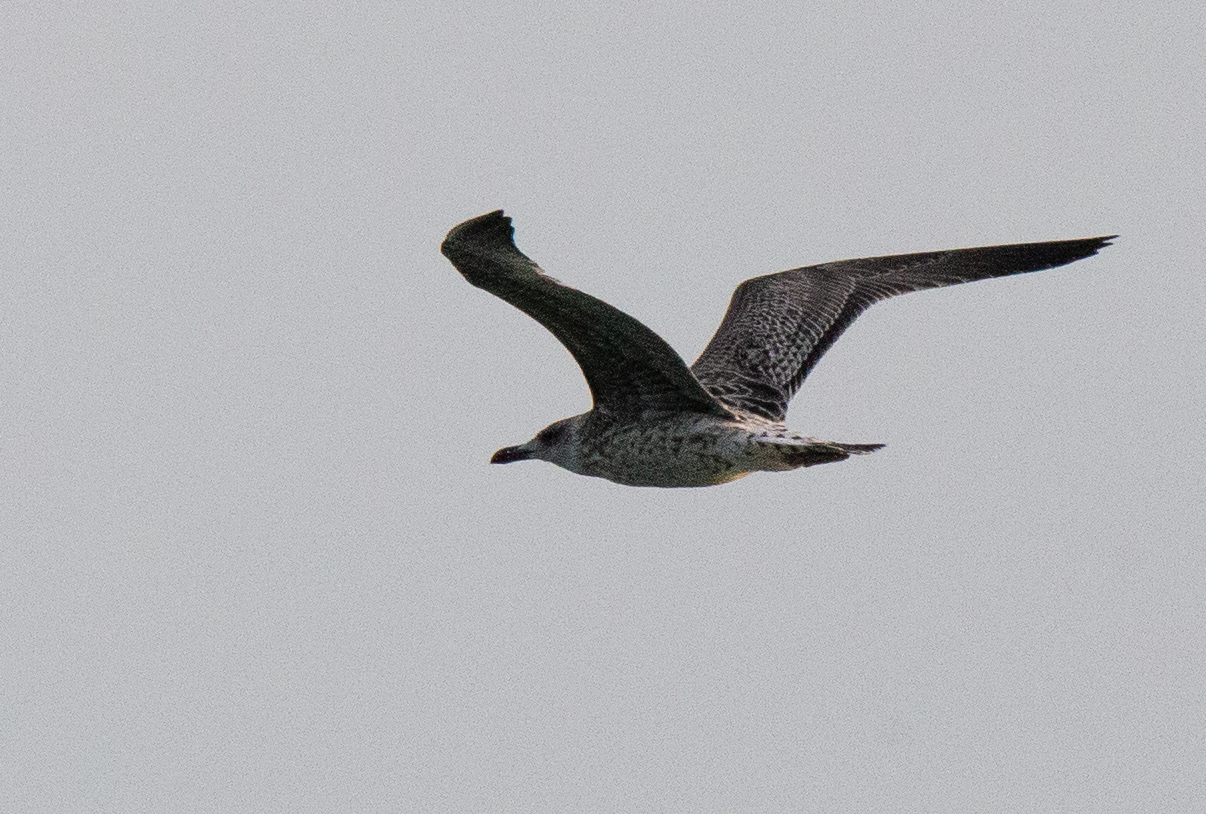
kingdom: Animalia
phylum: Chordata
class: Aves
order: Charadriiformes
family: Laridae
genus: Larus
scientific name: Larus michahellis
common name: Yellow-legged gull
